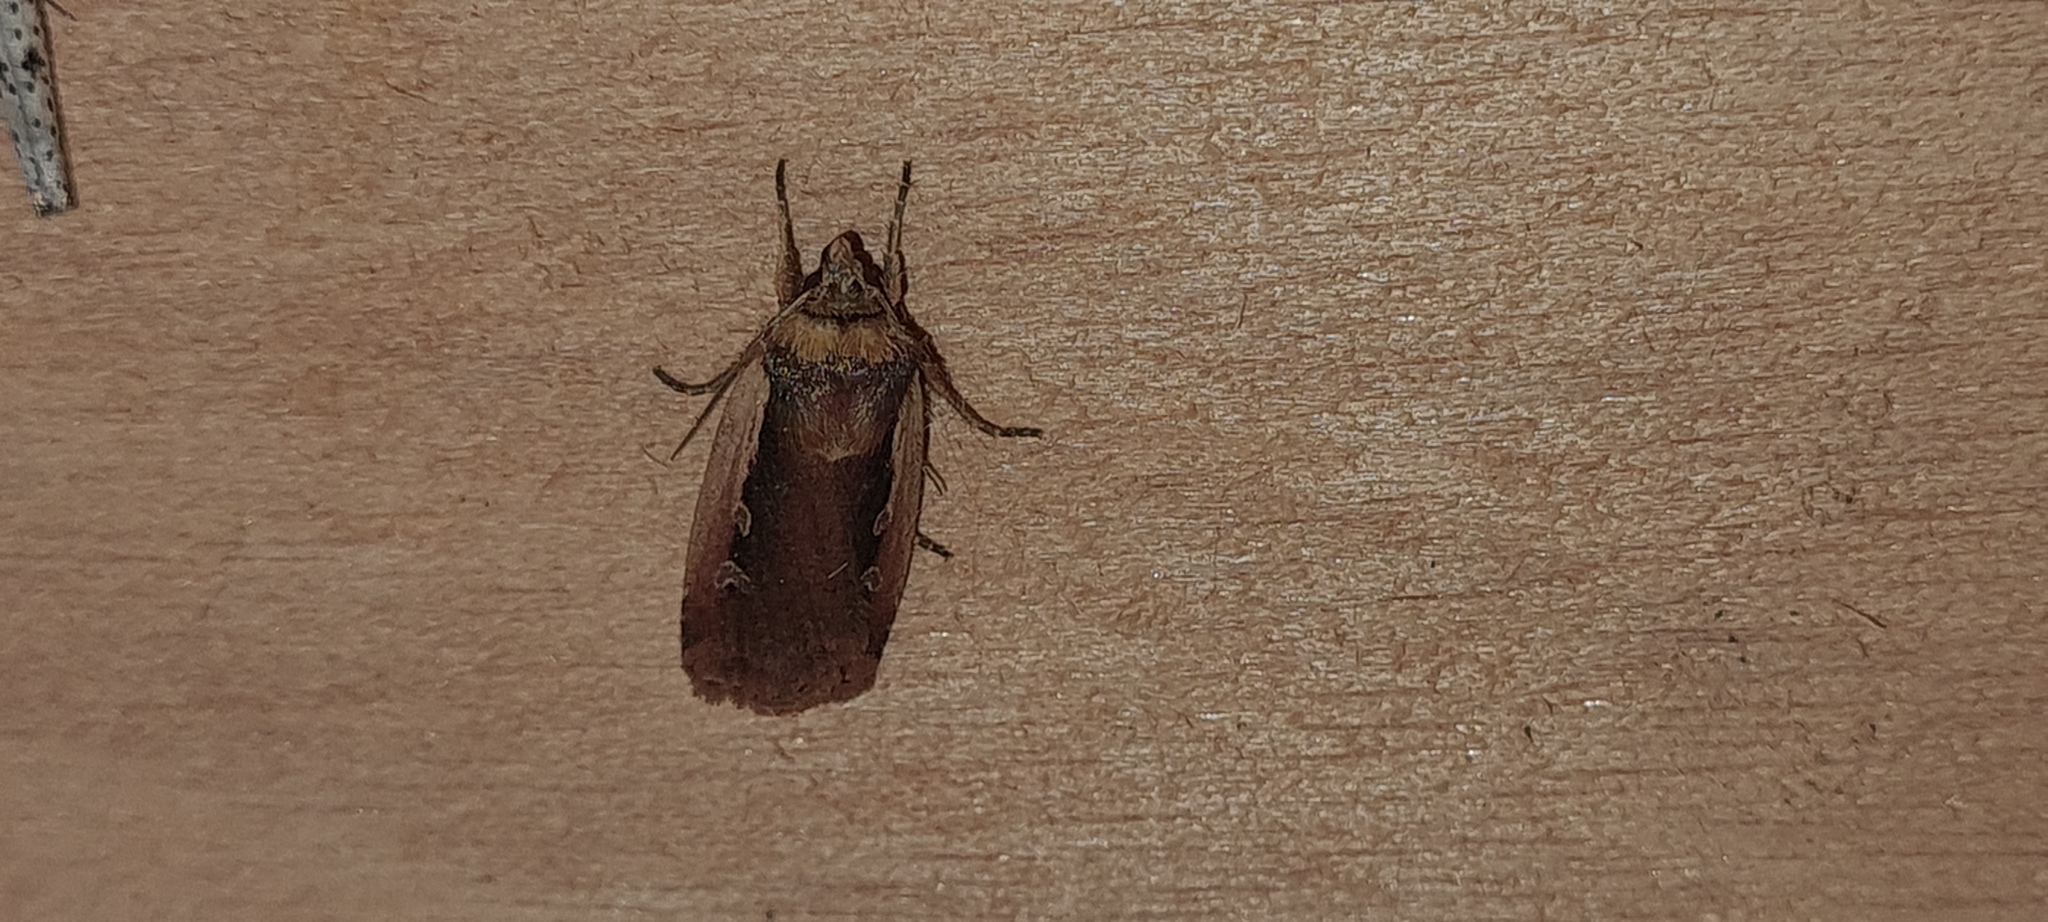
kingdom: Animalia
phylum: Arthropoda
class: Insecta
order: Lepidoptera
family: Noctuidae
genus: Ochropleura
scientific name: Ochropleura plecta
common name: Flame shoulder
